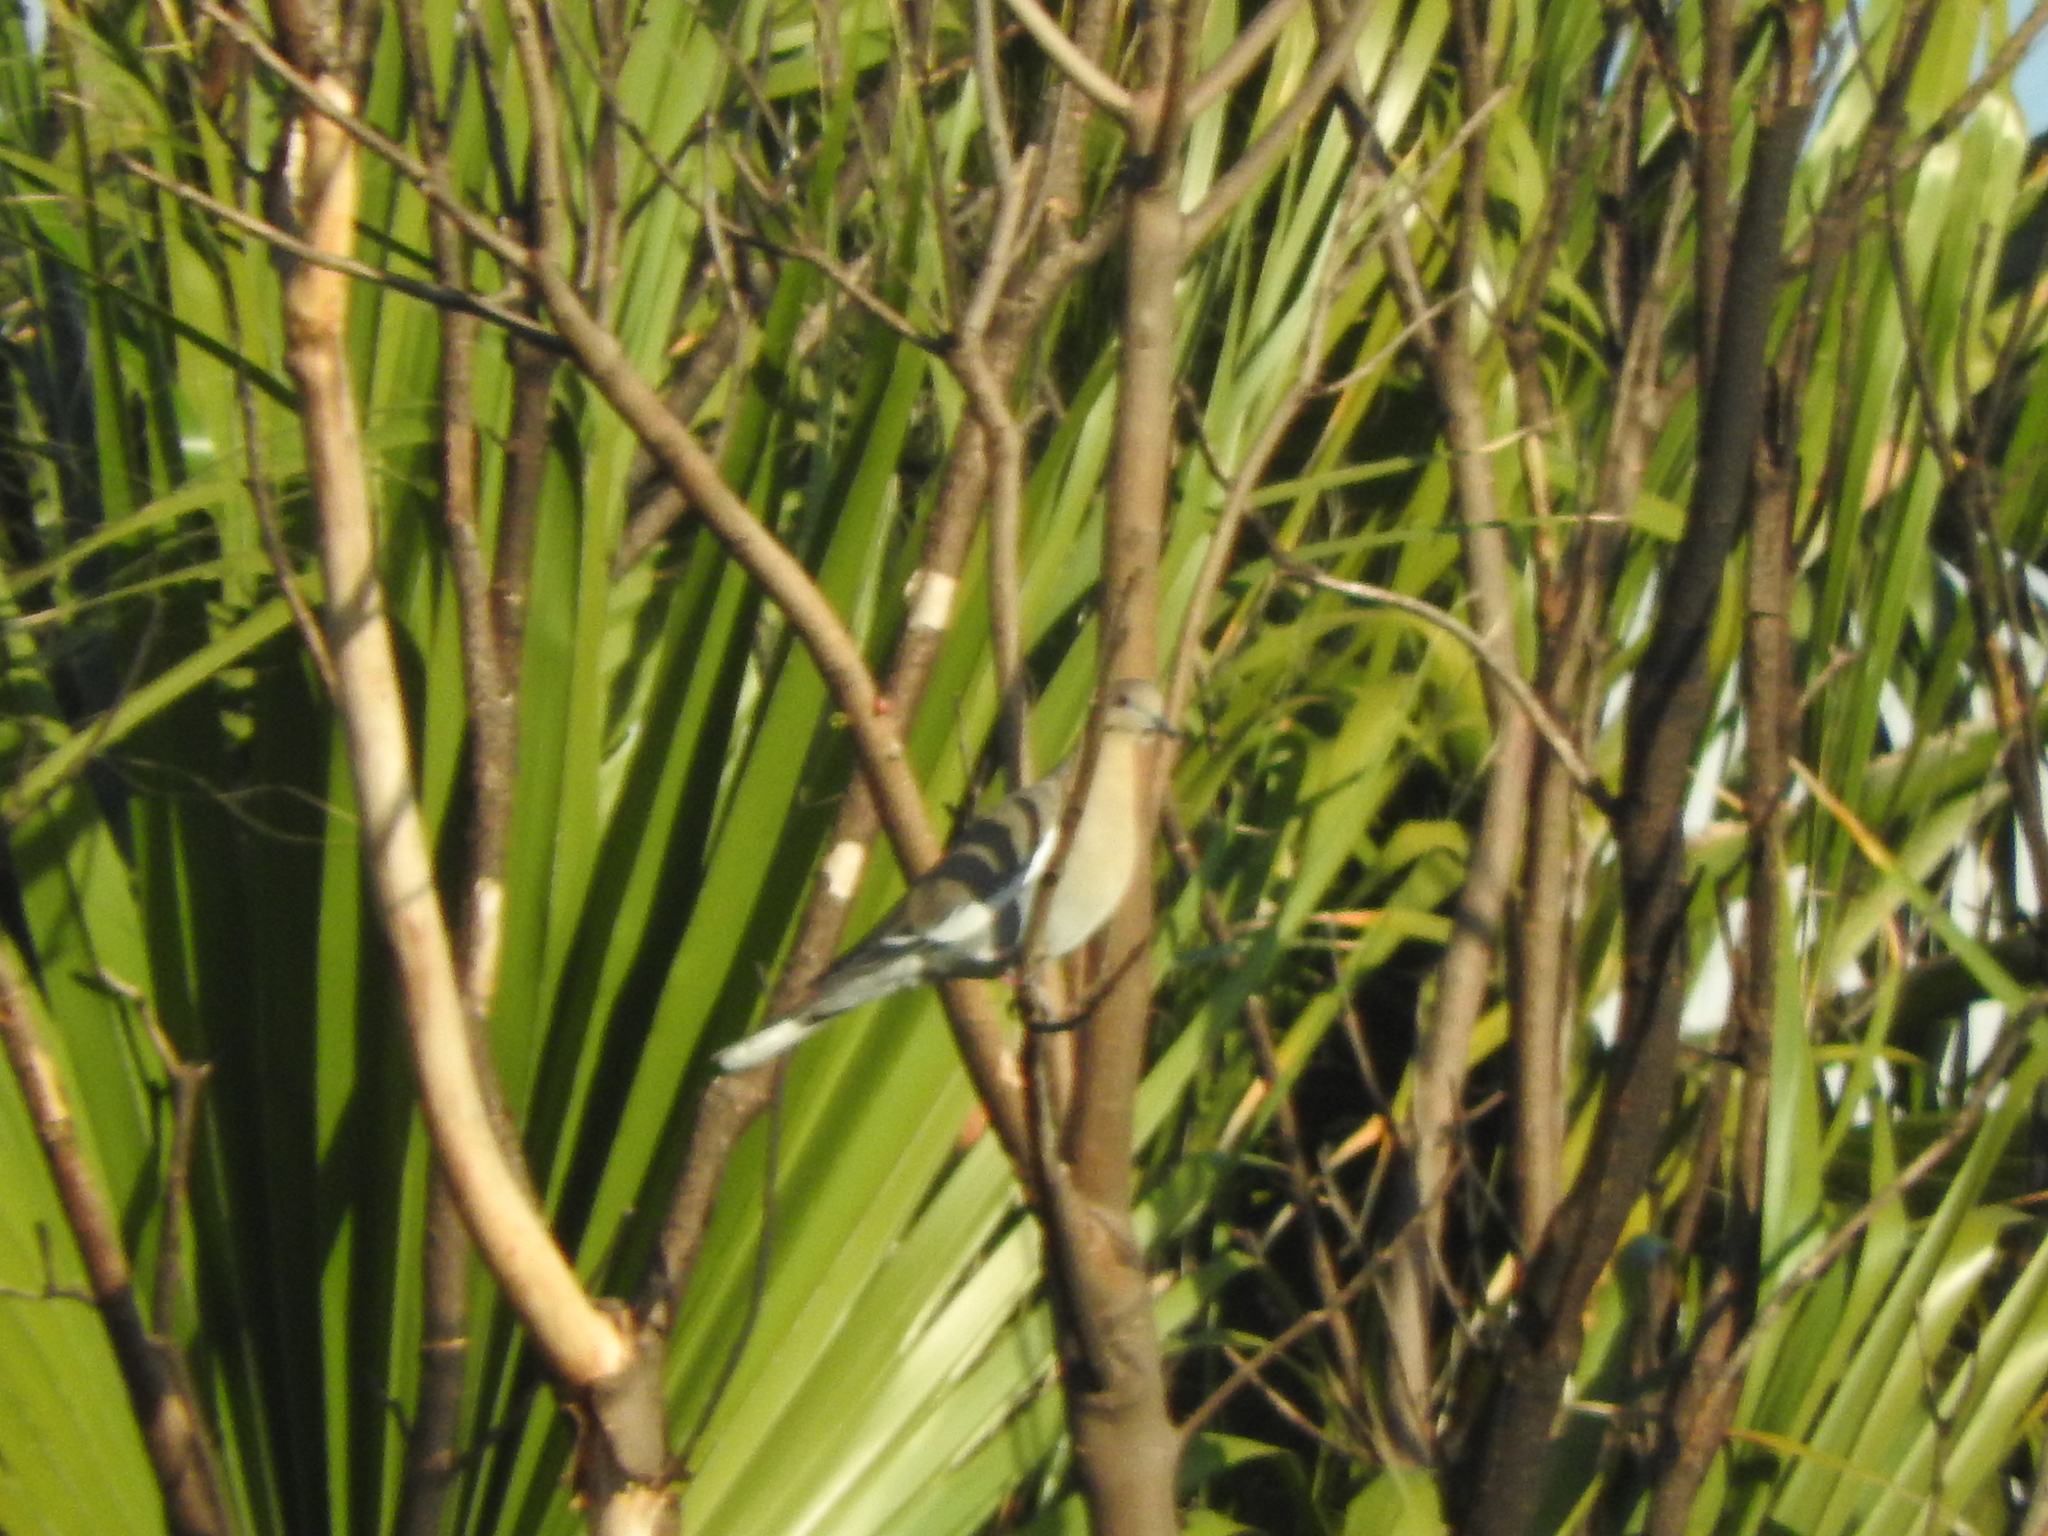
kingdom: Animalia
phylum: Chordata
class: Aves
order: Columbiformes
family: Columbidae
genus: Zenaida
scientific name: Zenaida asiatica
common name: White-winged dove
